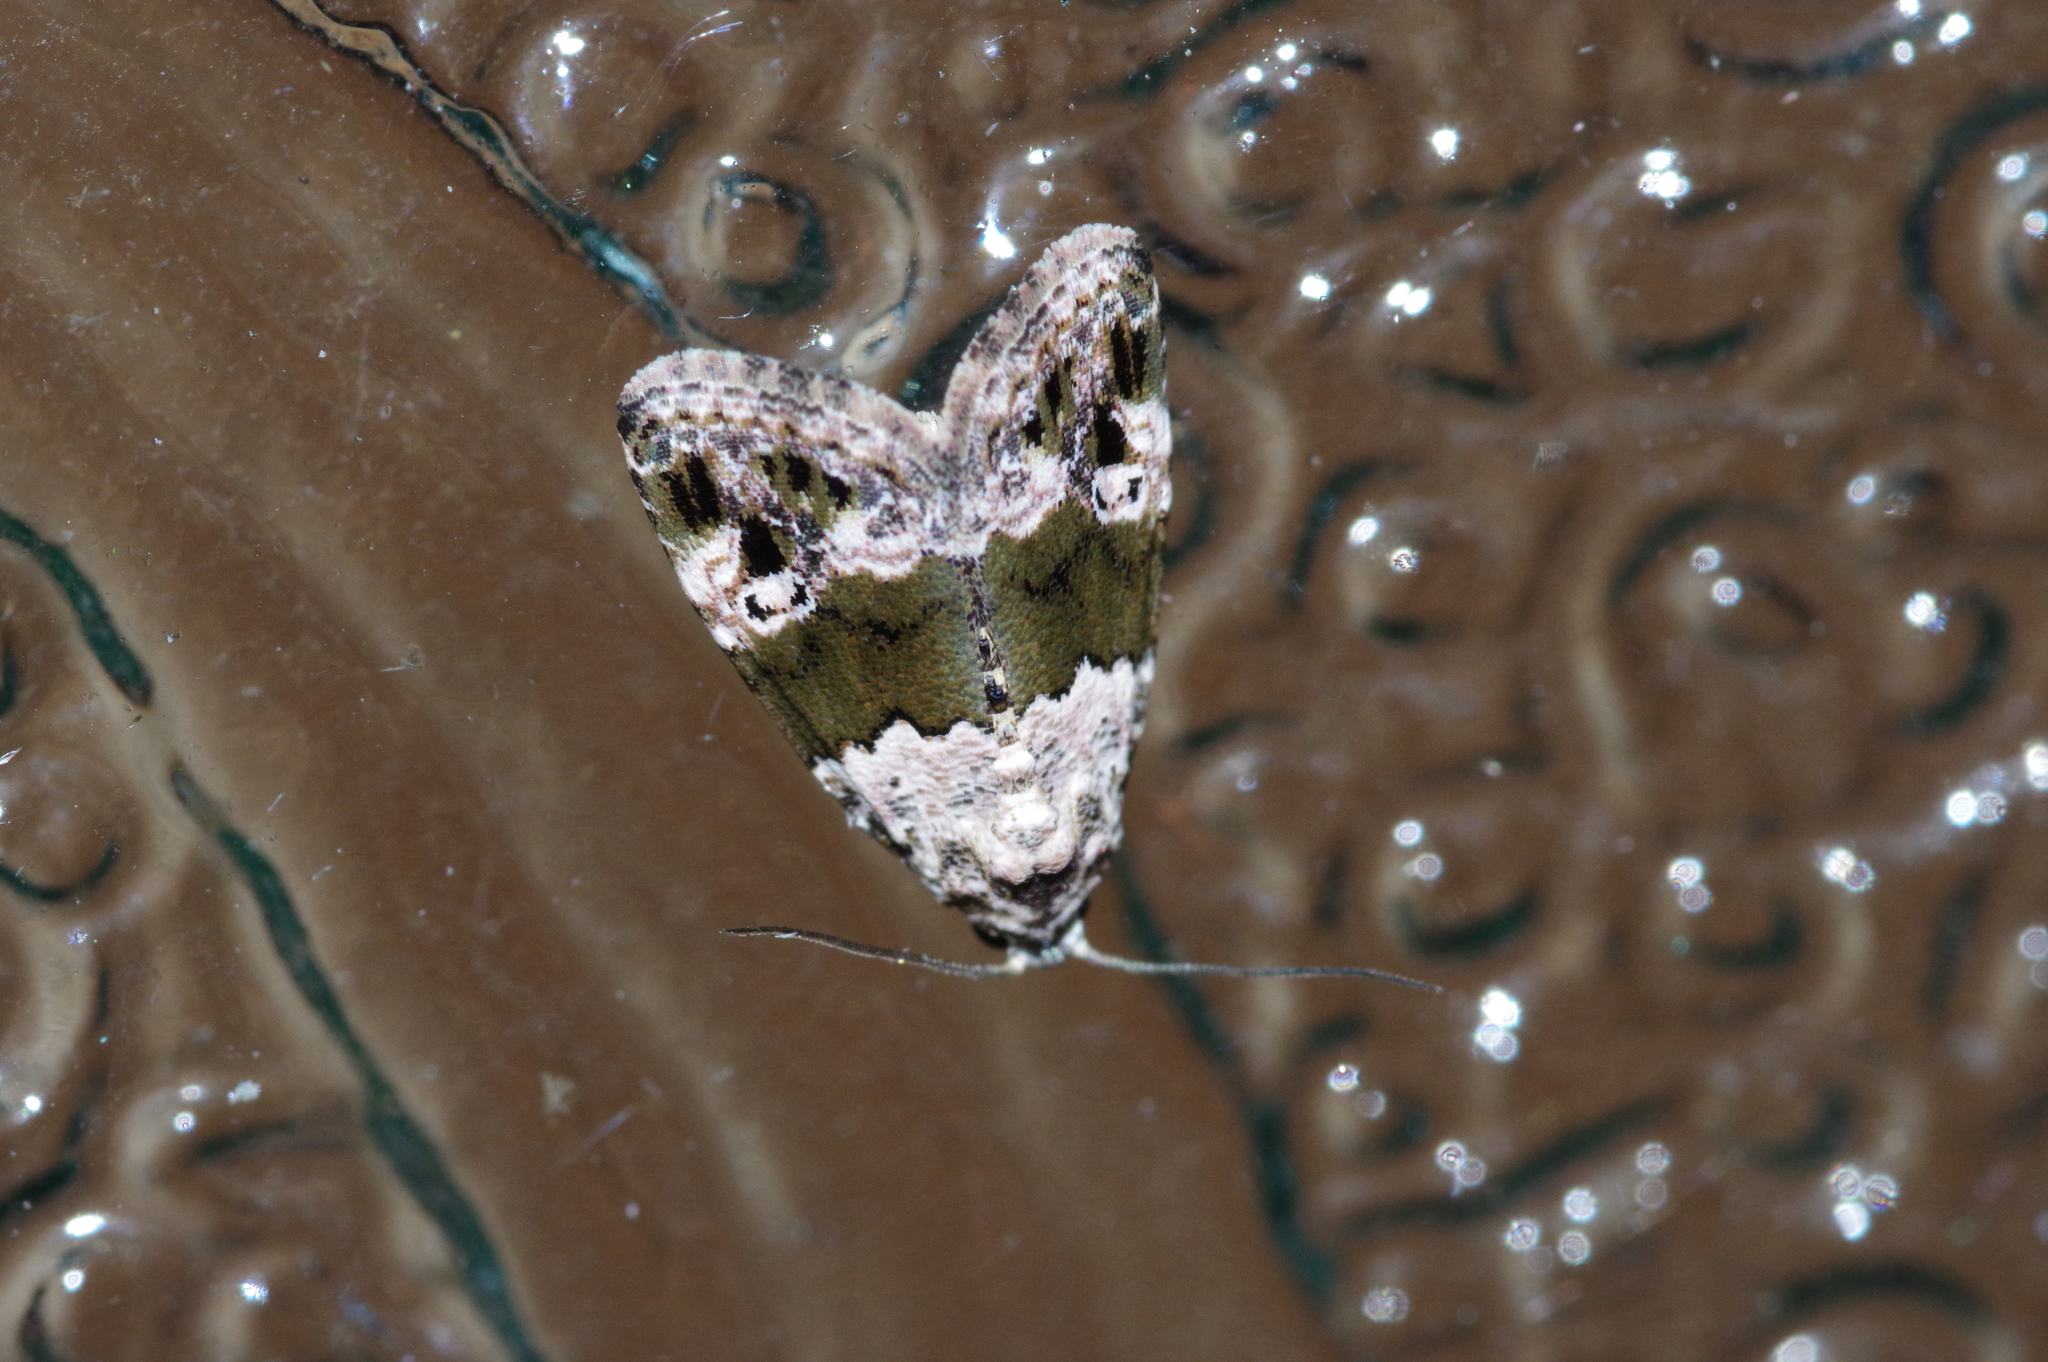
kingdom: Animalia
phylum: Arthropoda
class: Insecta
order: Lepidoptera
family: Noctuidae
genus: Maliattha
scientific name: Maliattha signifera
